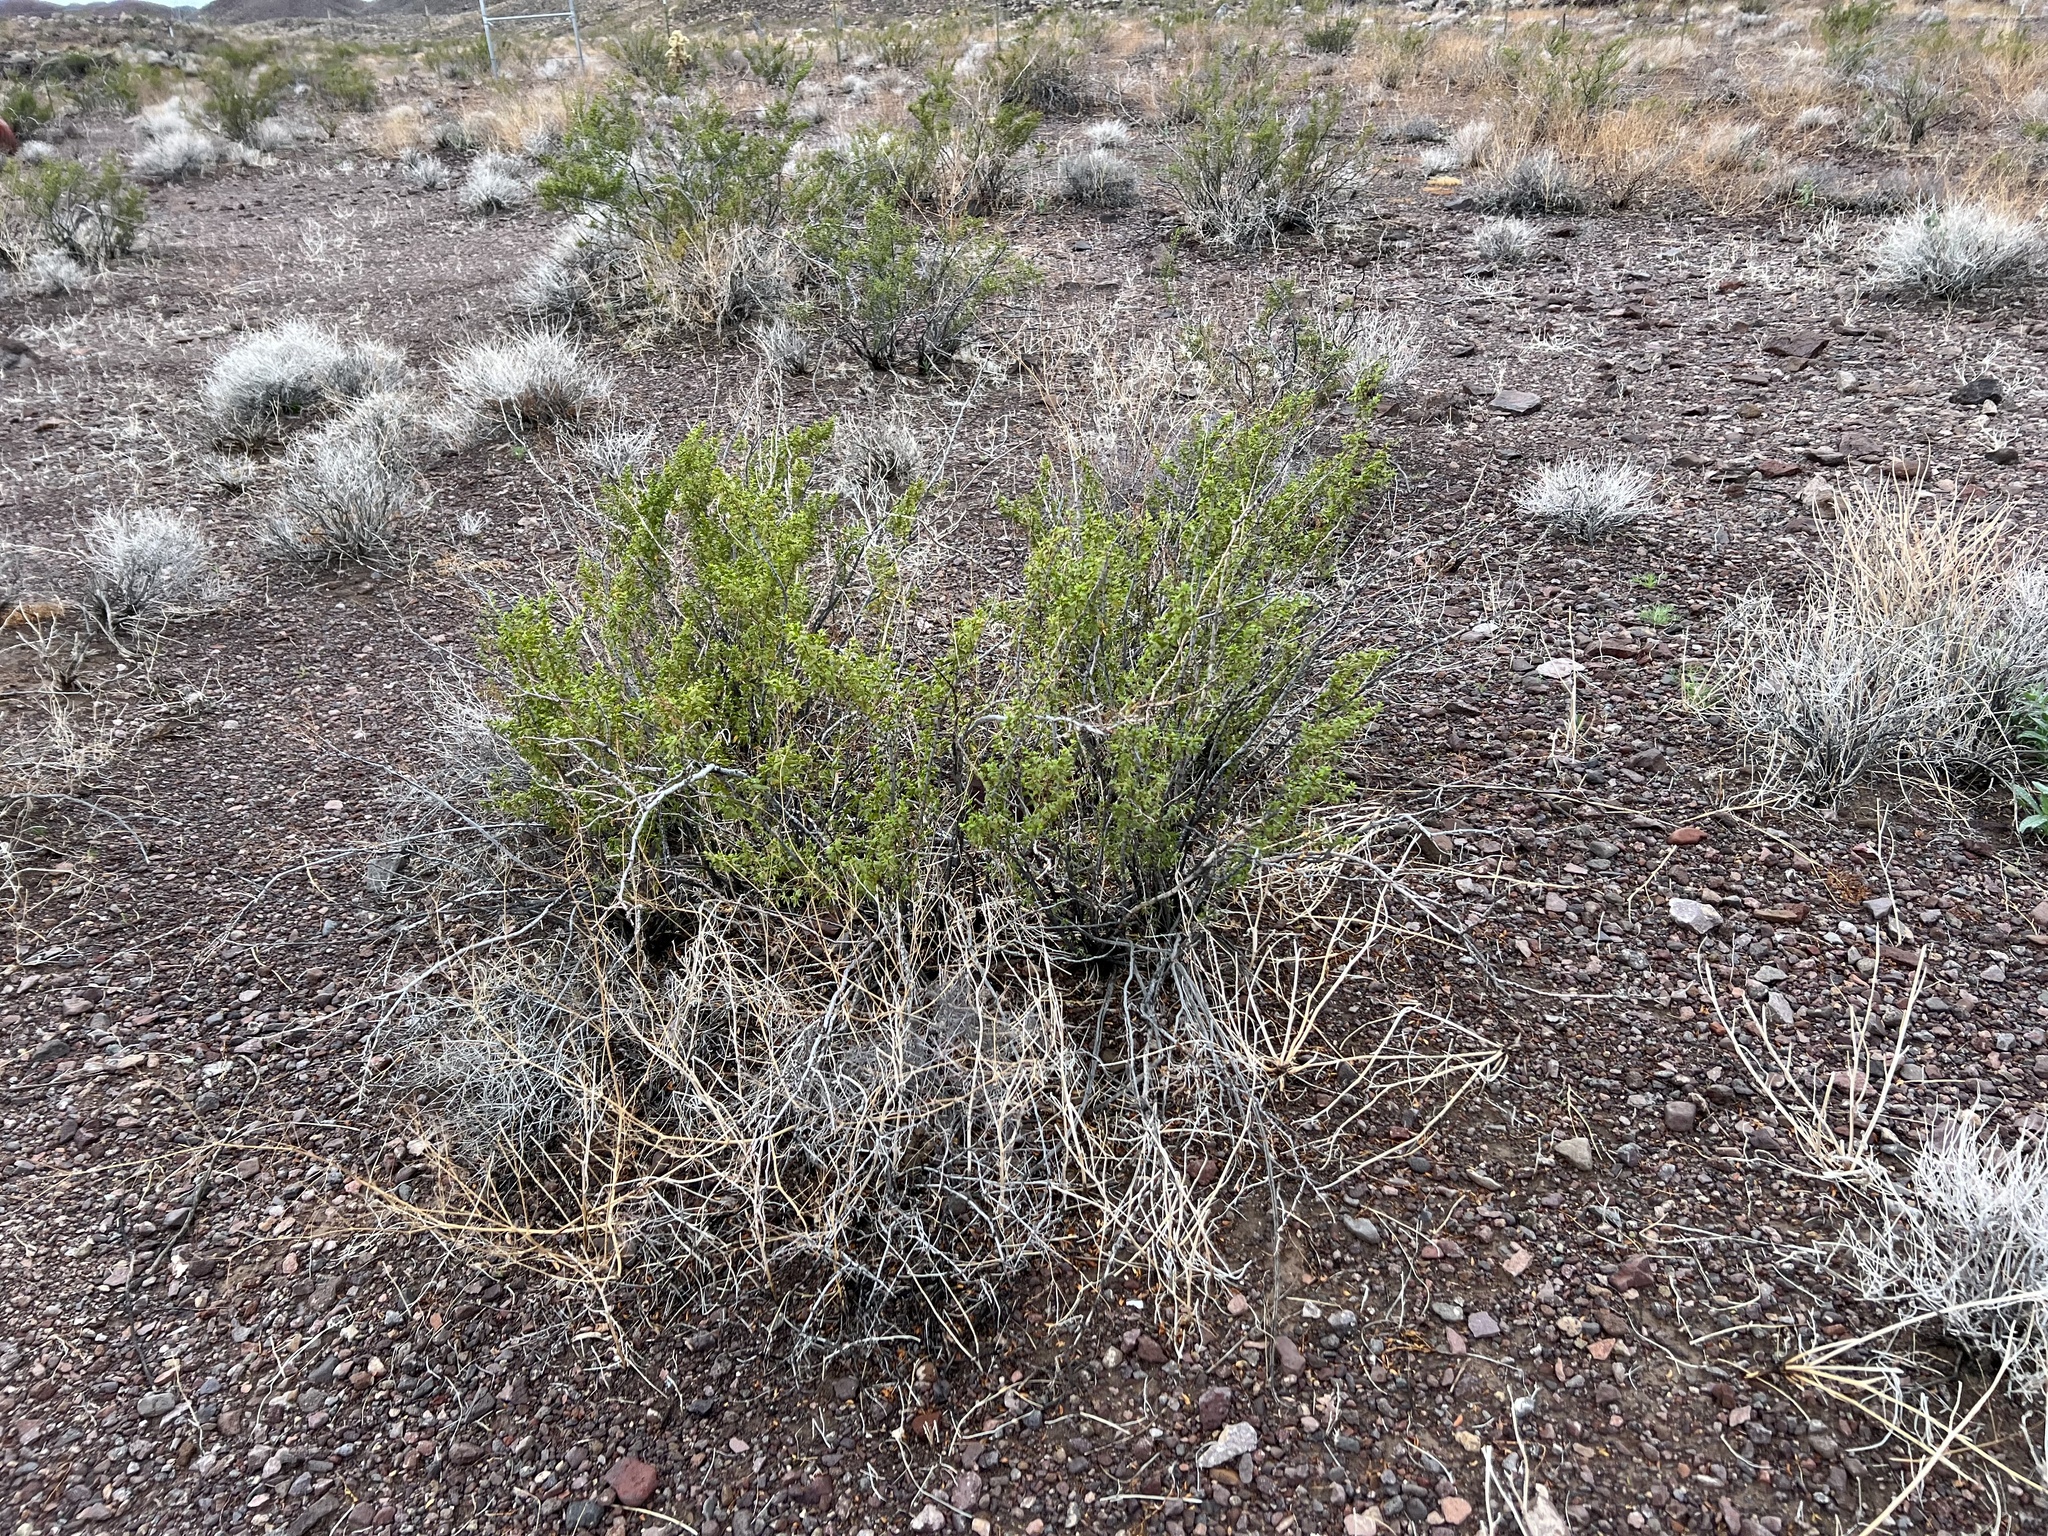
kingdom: Plantae
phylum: Tracheophyta
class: Magnoliopsida
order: Zygophyllales
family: Zygophyllaceae
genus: Larrea
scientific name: Larrea tridentata
